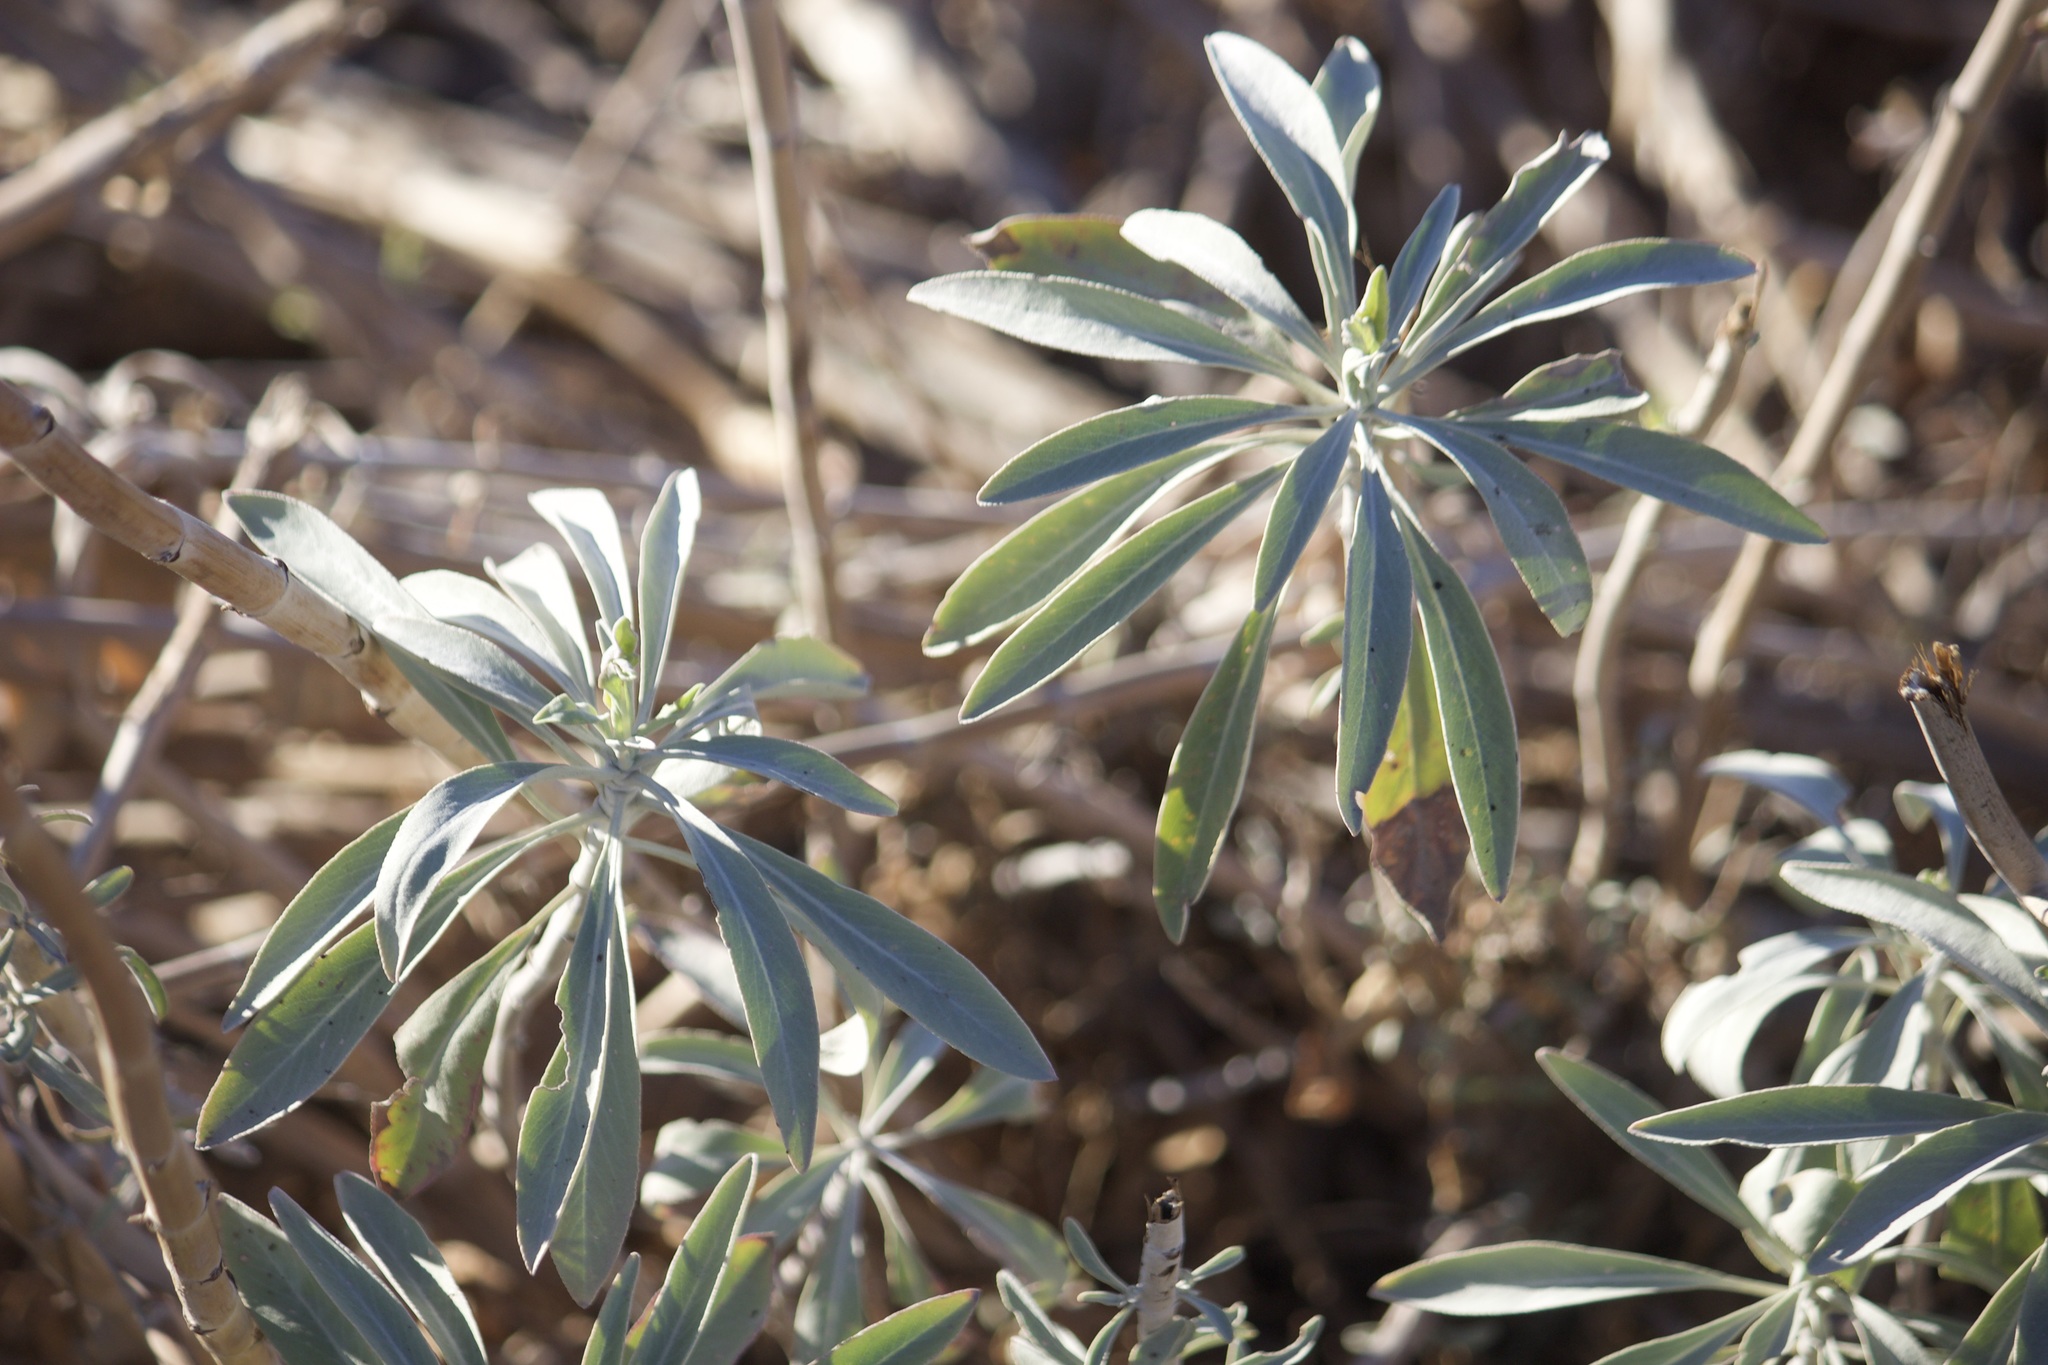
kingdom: Plantae
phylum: Tracheophyta
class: Magnoliopsida
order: Lamiales
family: Lamiaceae
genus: Salvia
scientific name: Salvia apiana
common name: White sage
